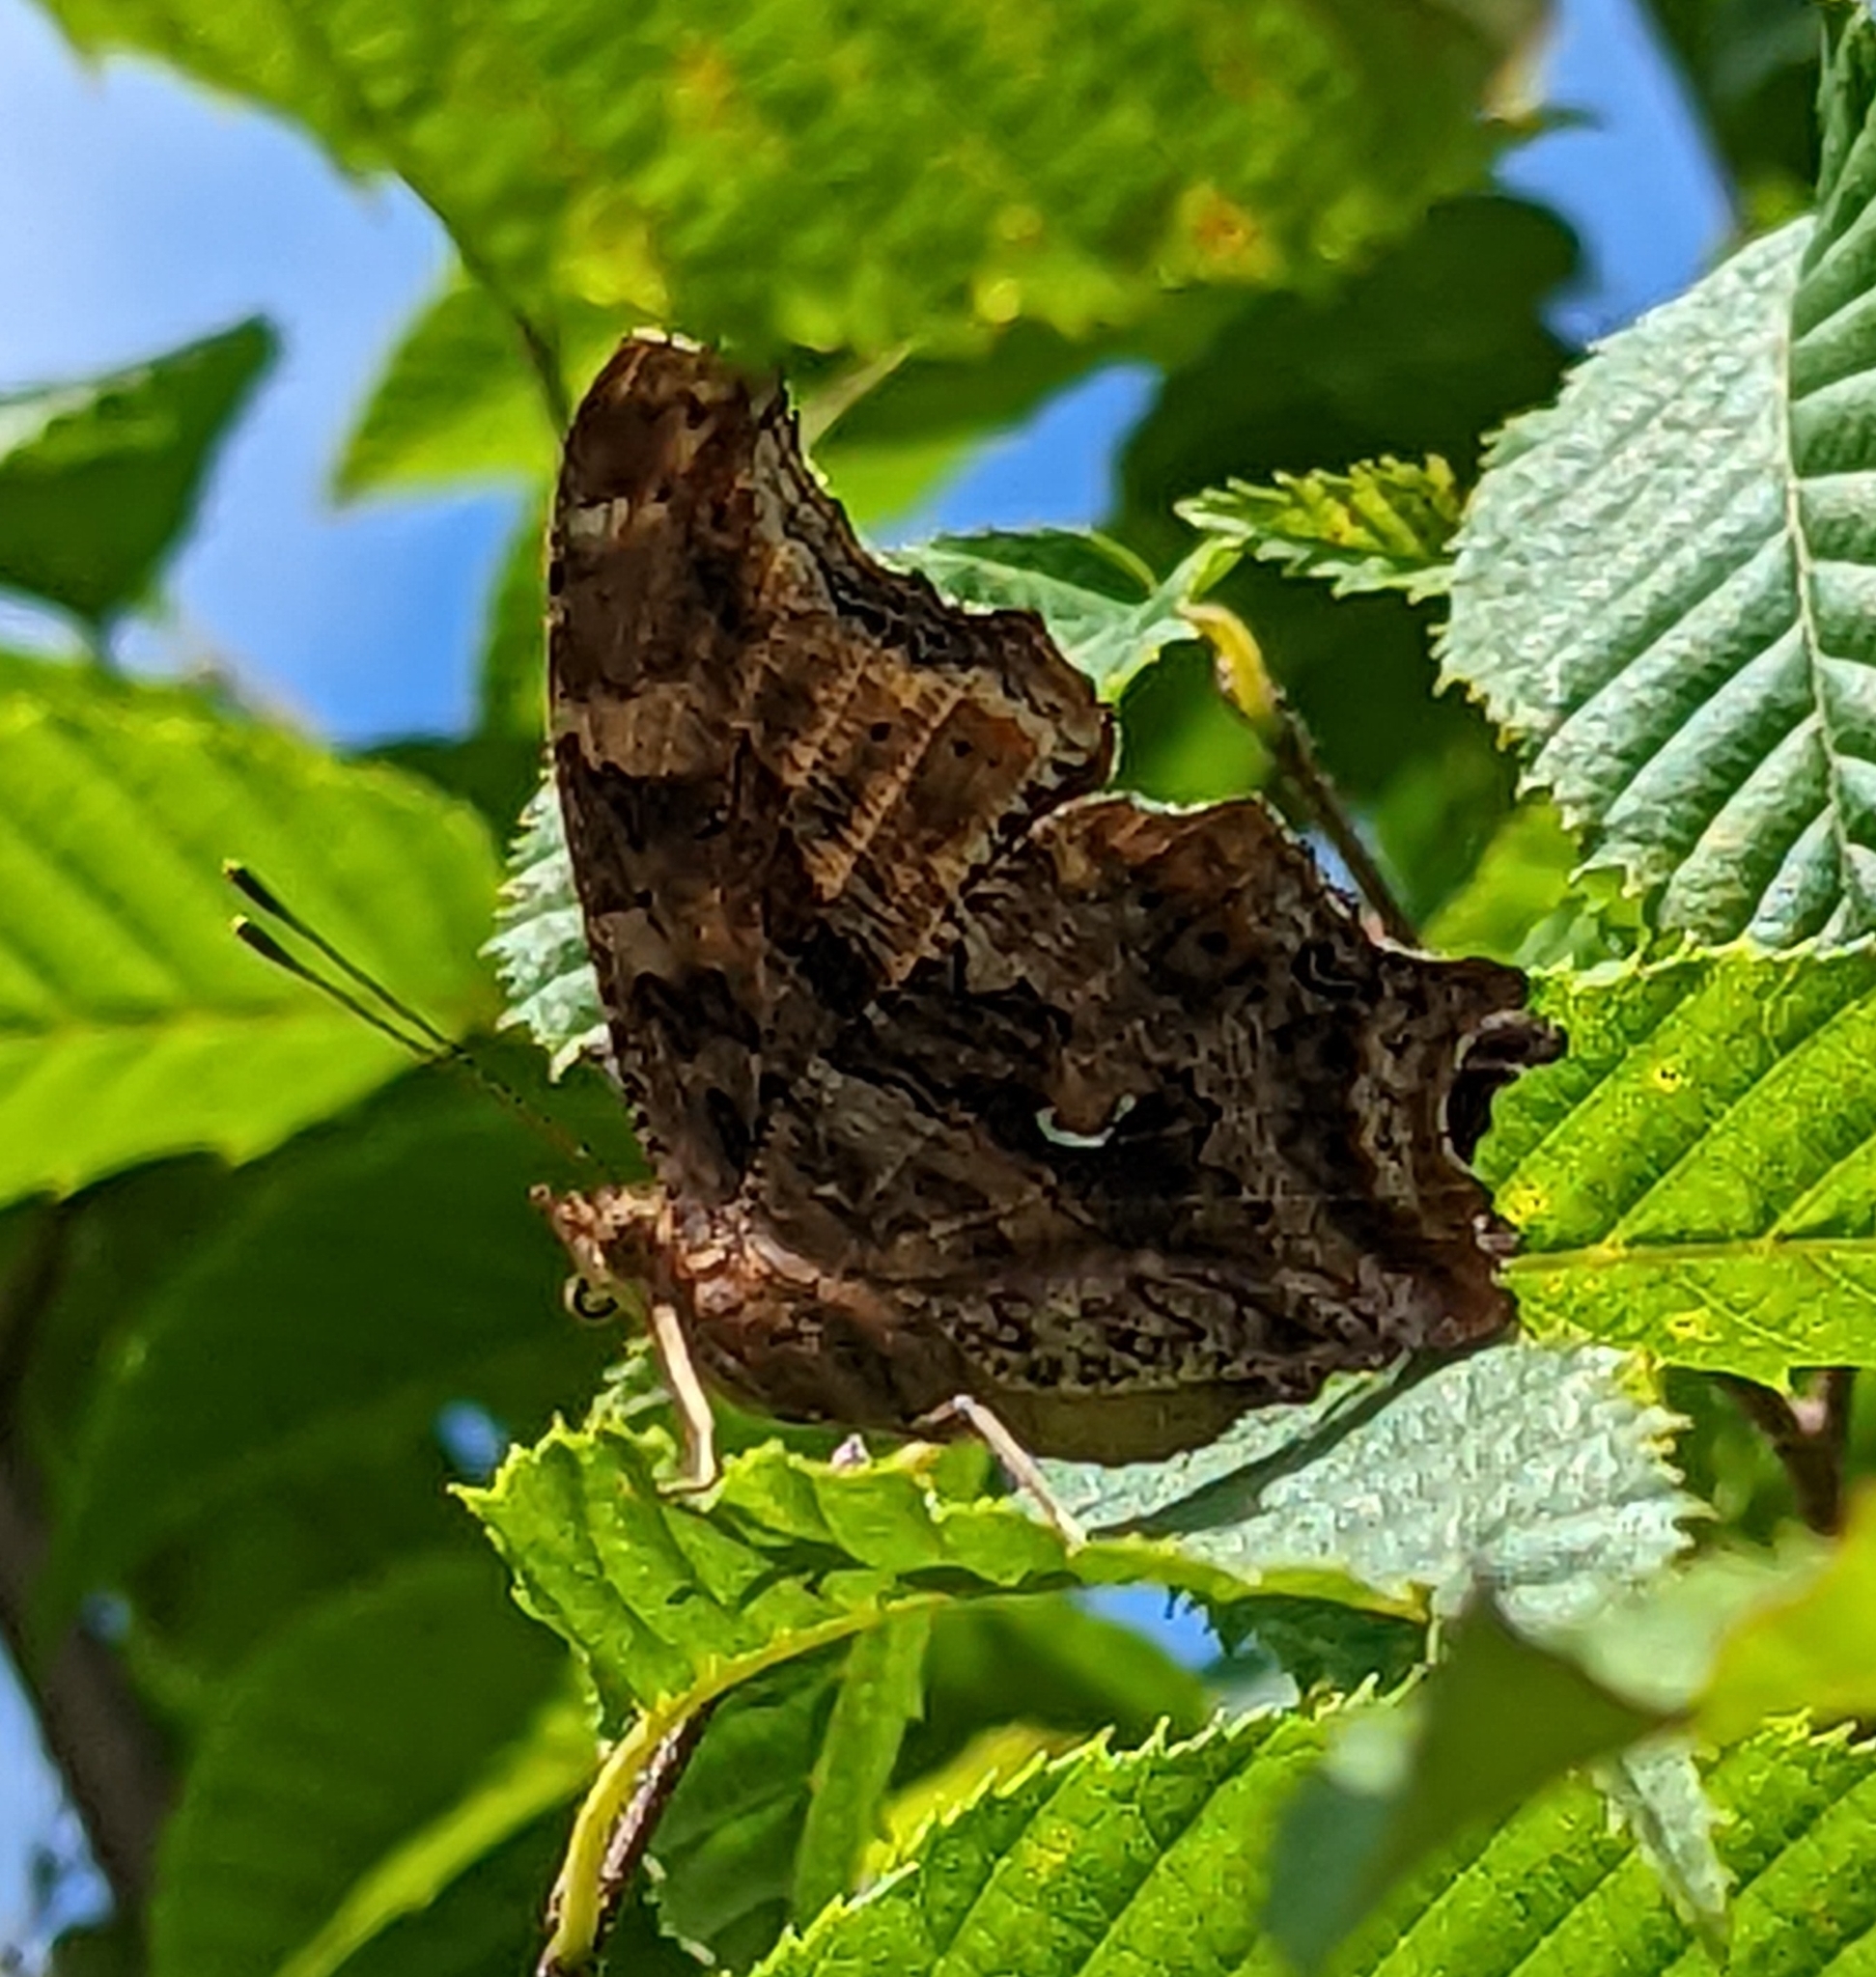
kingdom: Animalia
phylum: Arthropoda
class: Insecta
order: Lepidoptera
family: Nymphalidae
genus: Polygonia
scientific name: Polygonia comma
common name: Eastern comma
